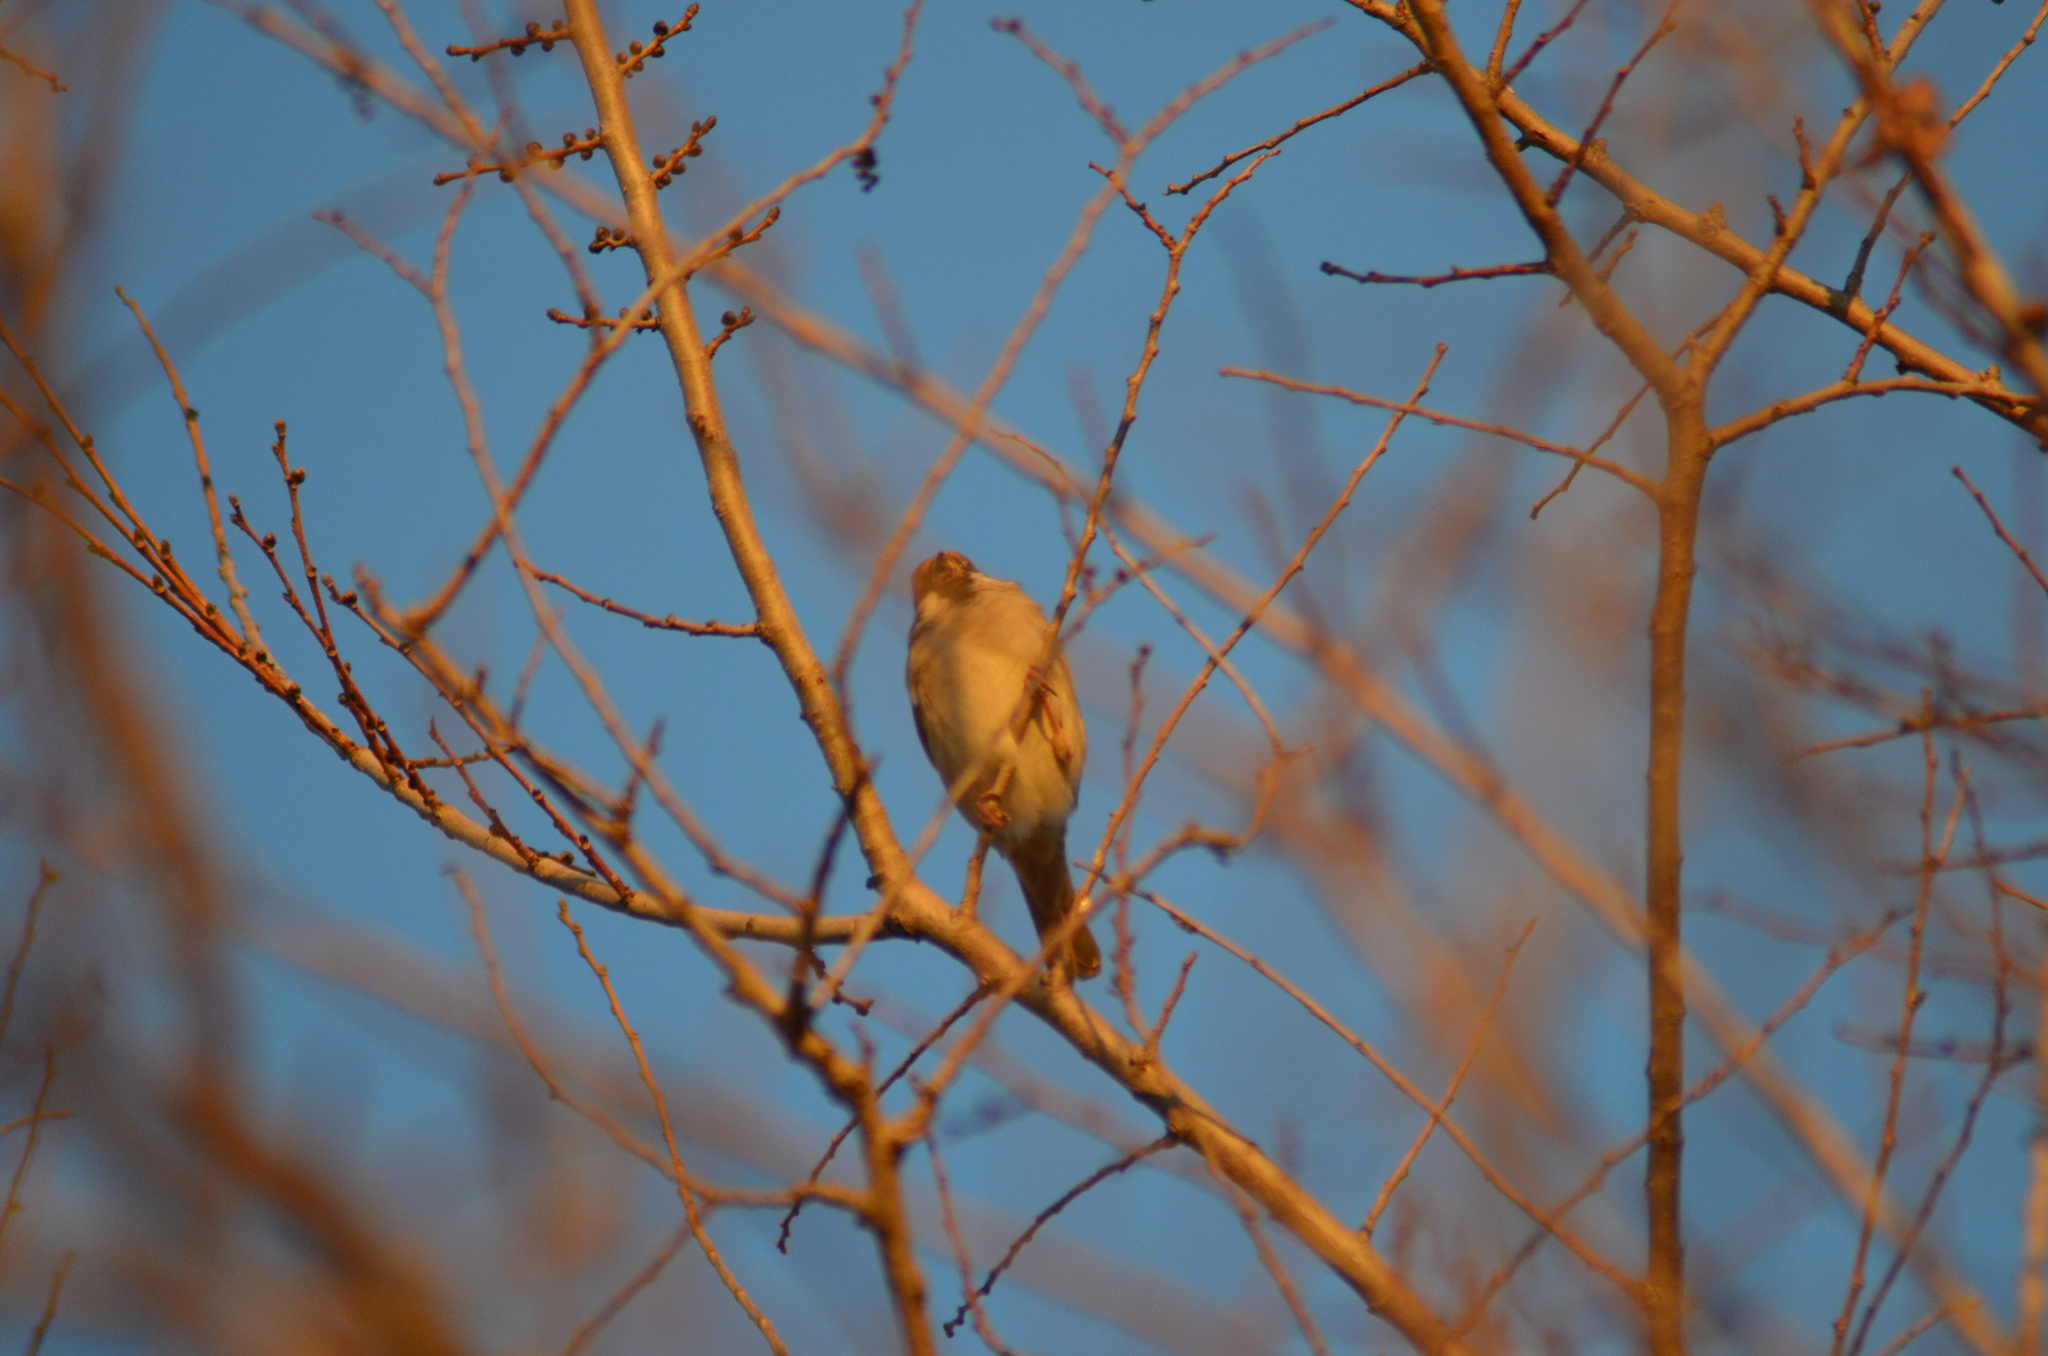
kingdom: Animalia
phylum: Chordata
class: Aves
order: Passeriformes
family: Passeridae
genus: Passer
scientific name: Passer montanus
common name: Eurasian tree sparrow
